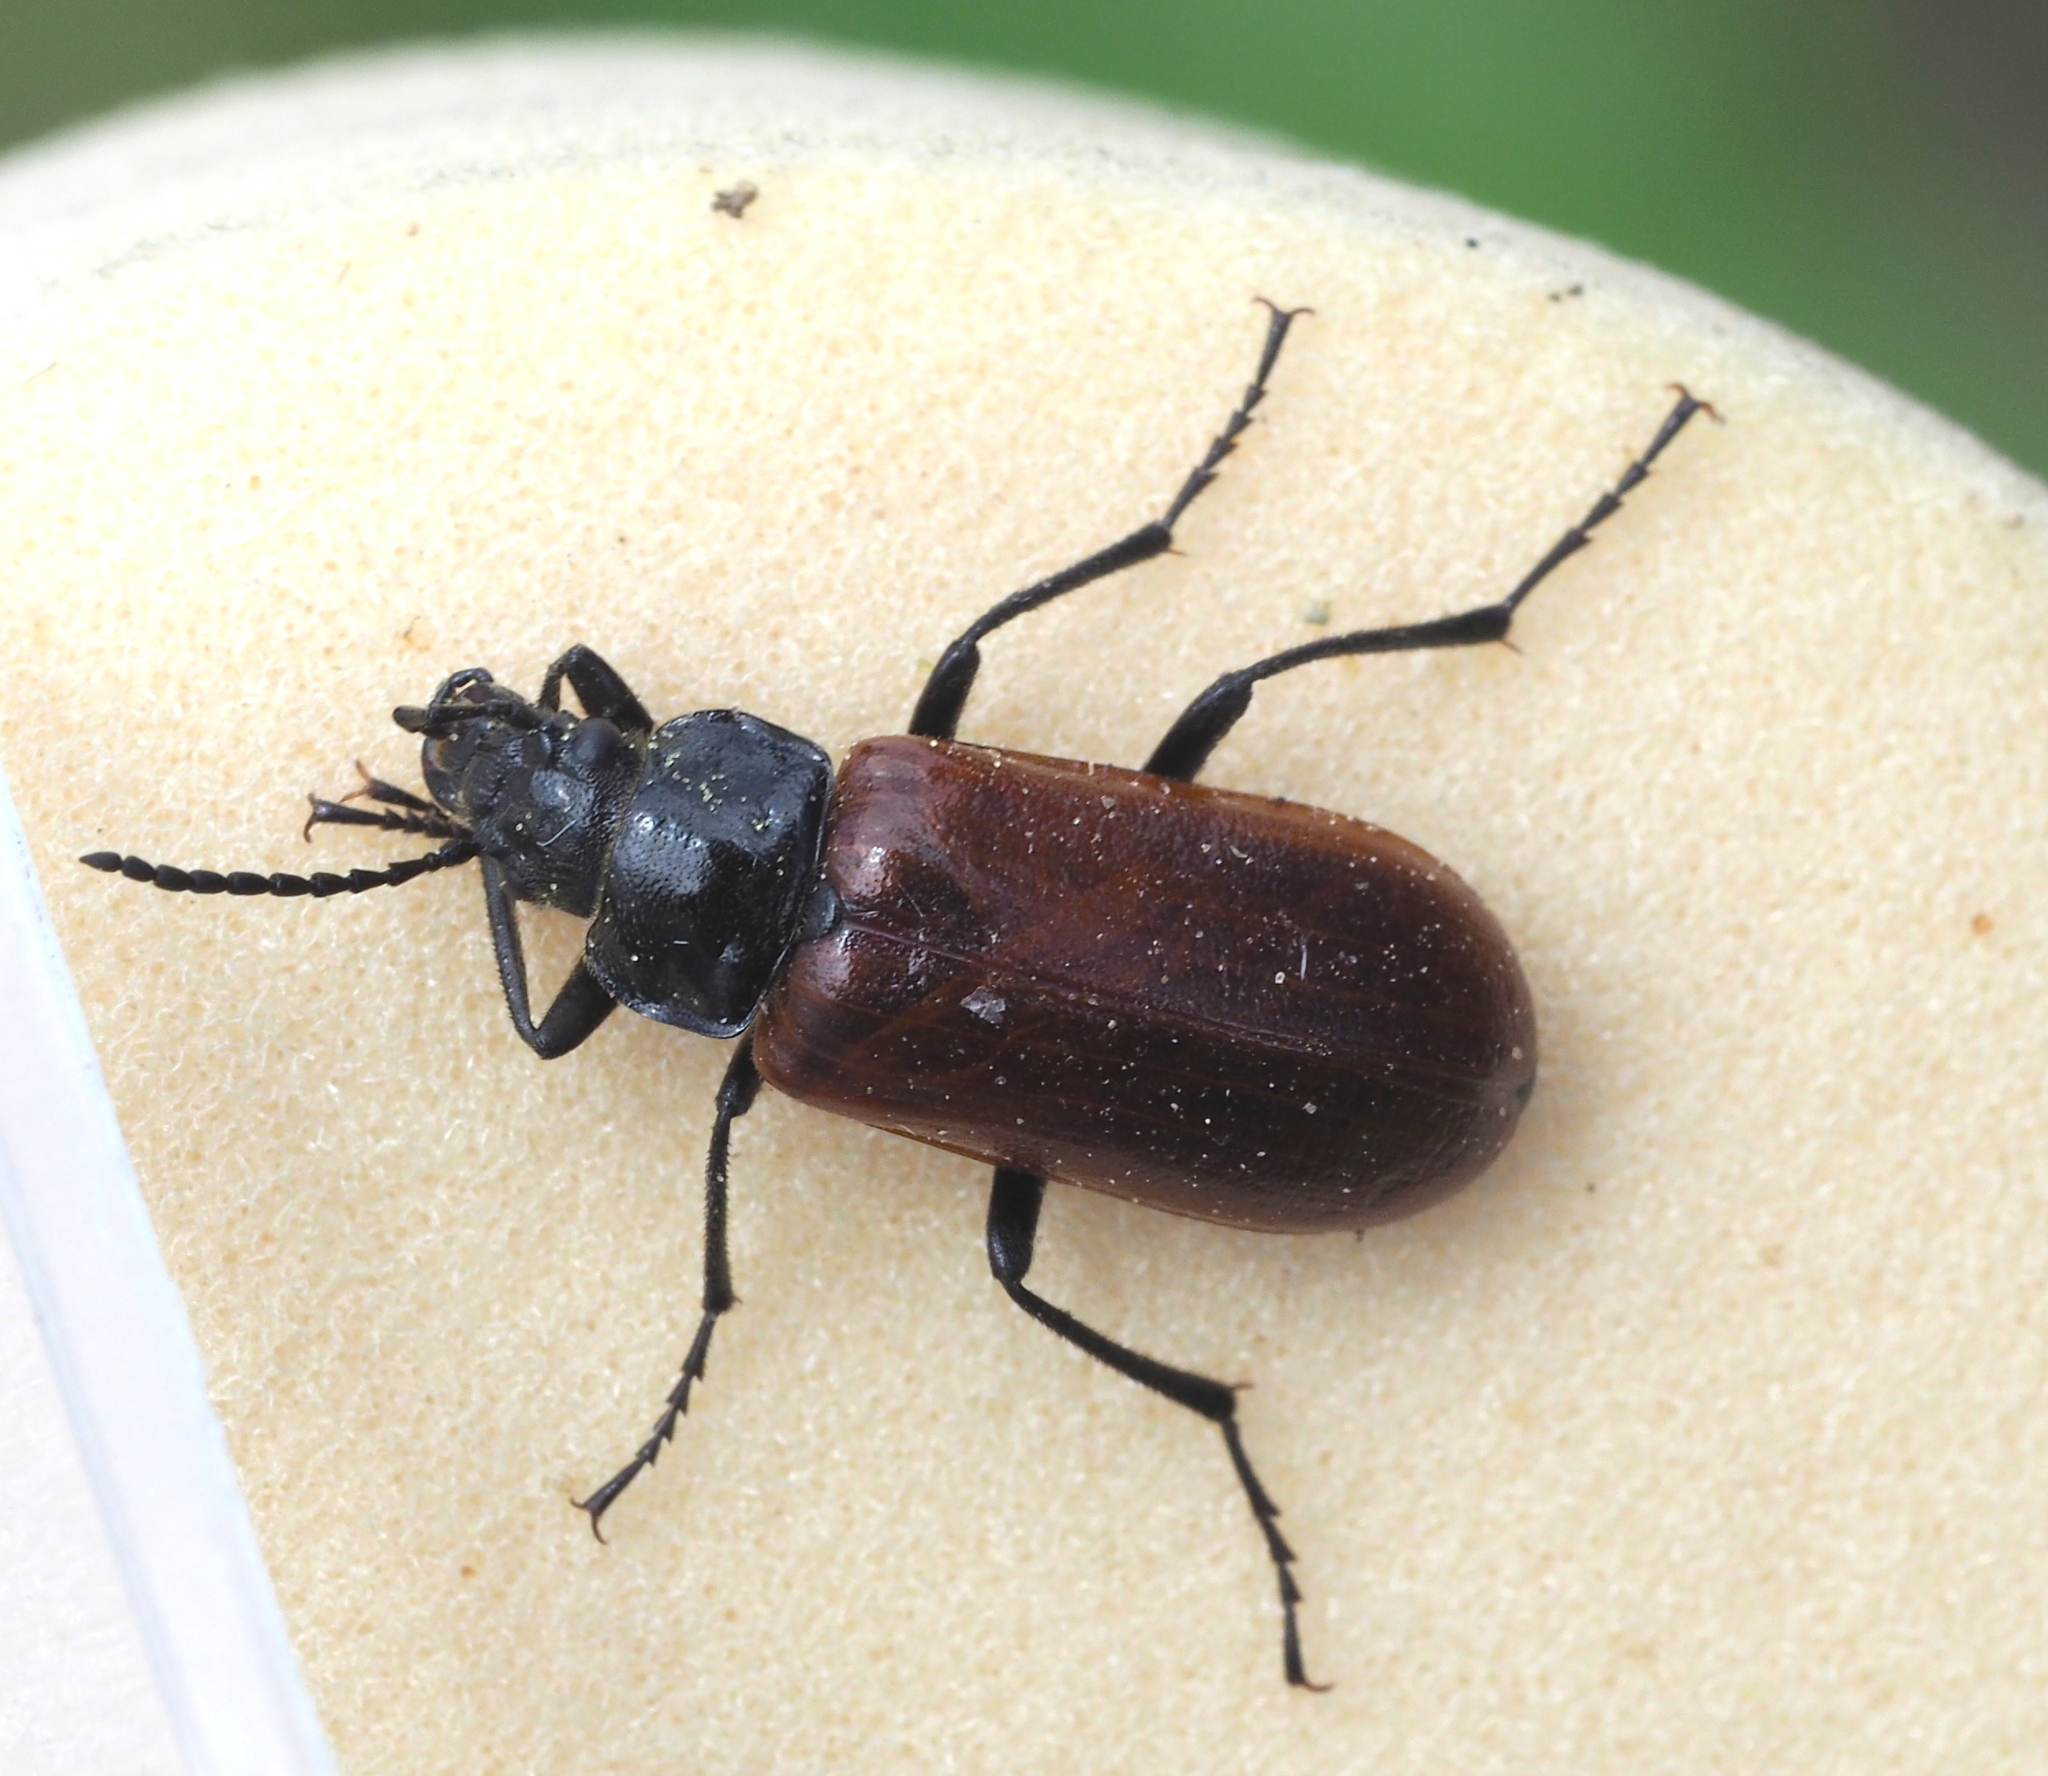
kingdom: Animalia
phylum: Arthropoda
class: Insecta
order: Coleoptera
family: Tenebrionidae
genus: Omophlus
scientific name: Omophlus
